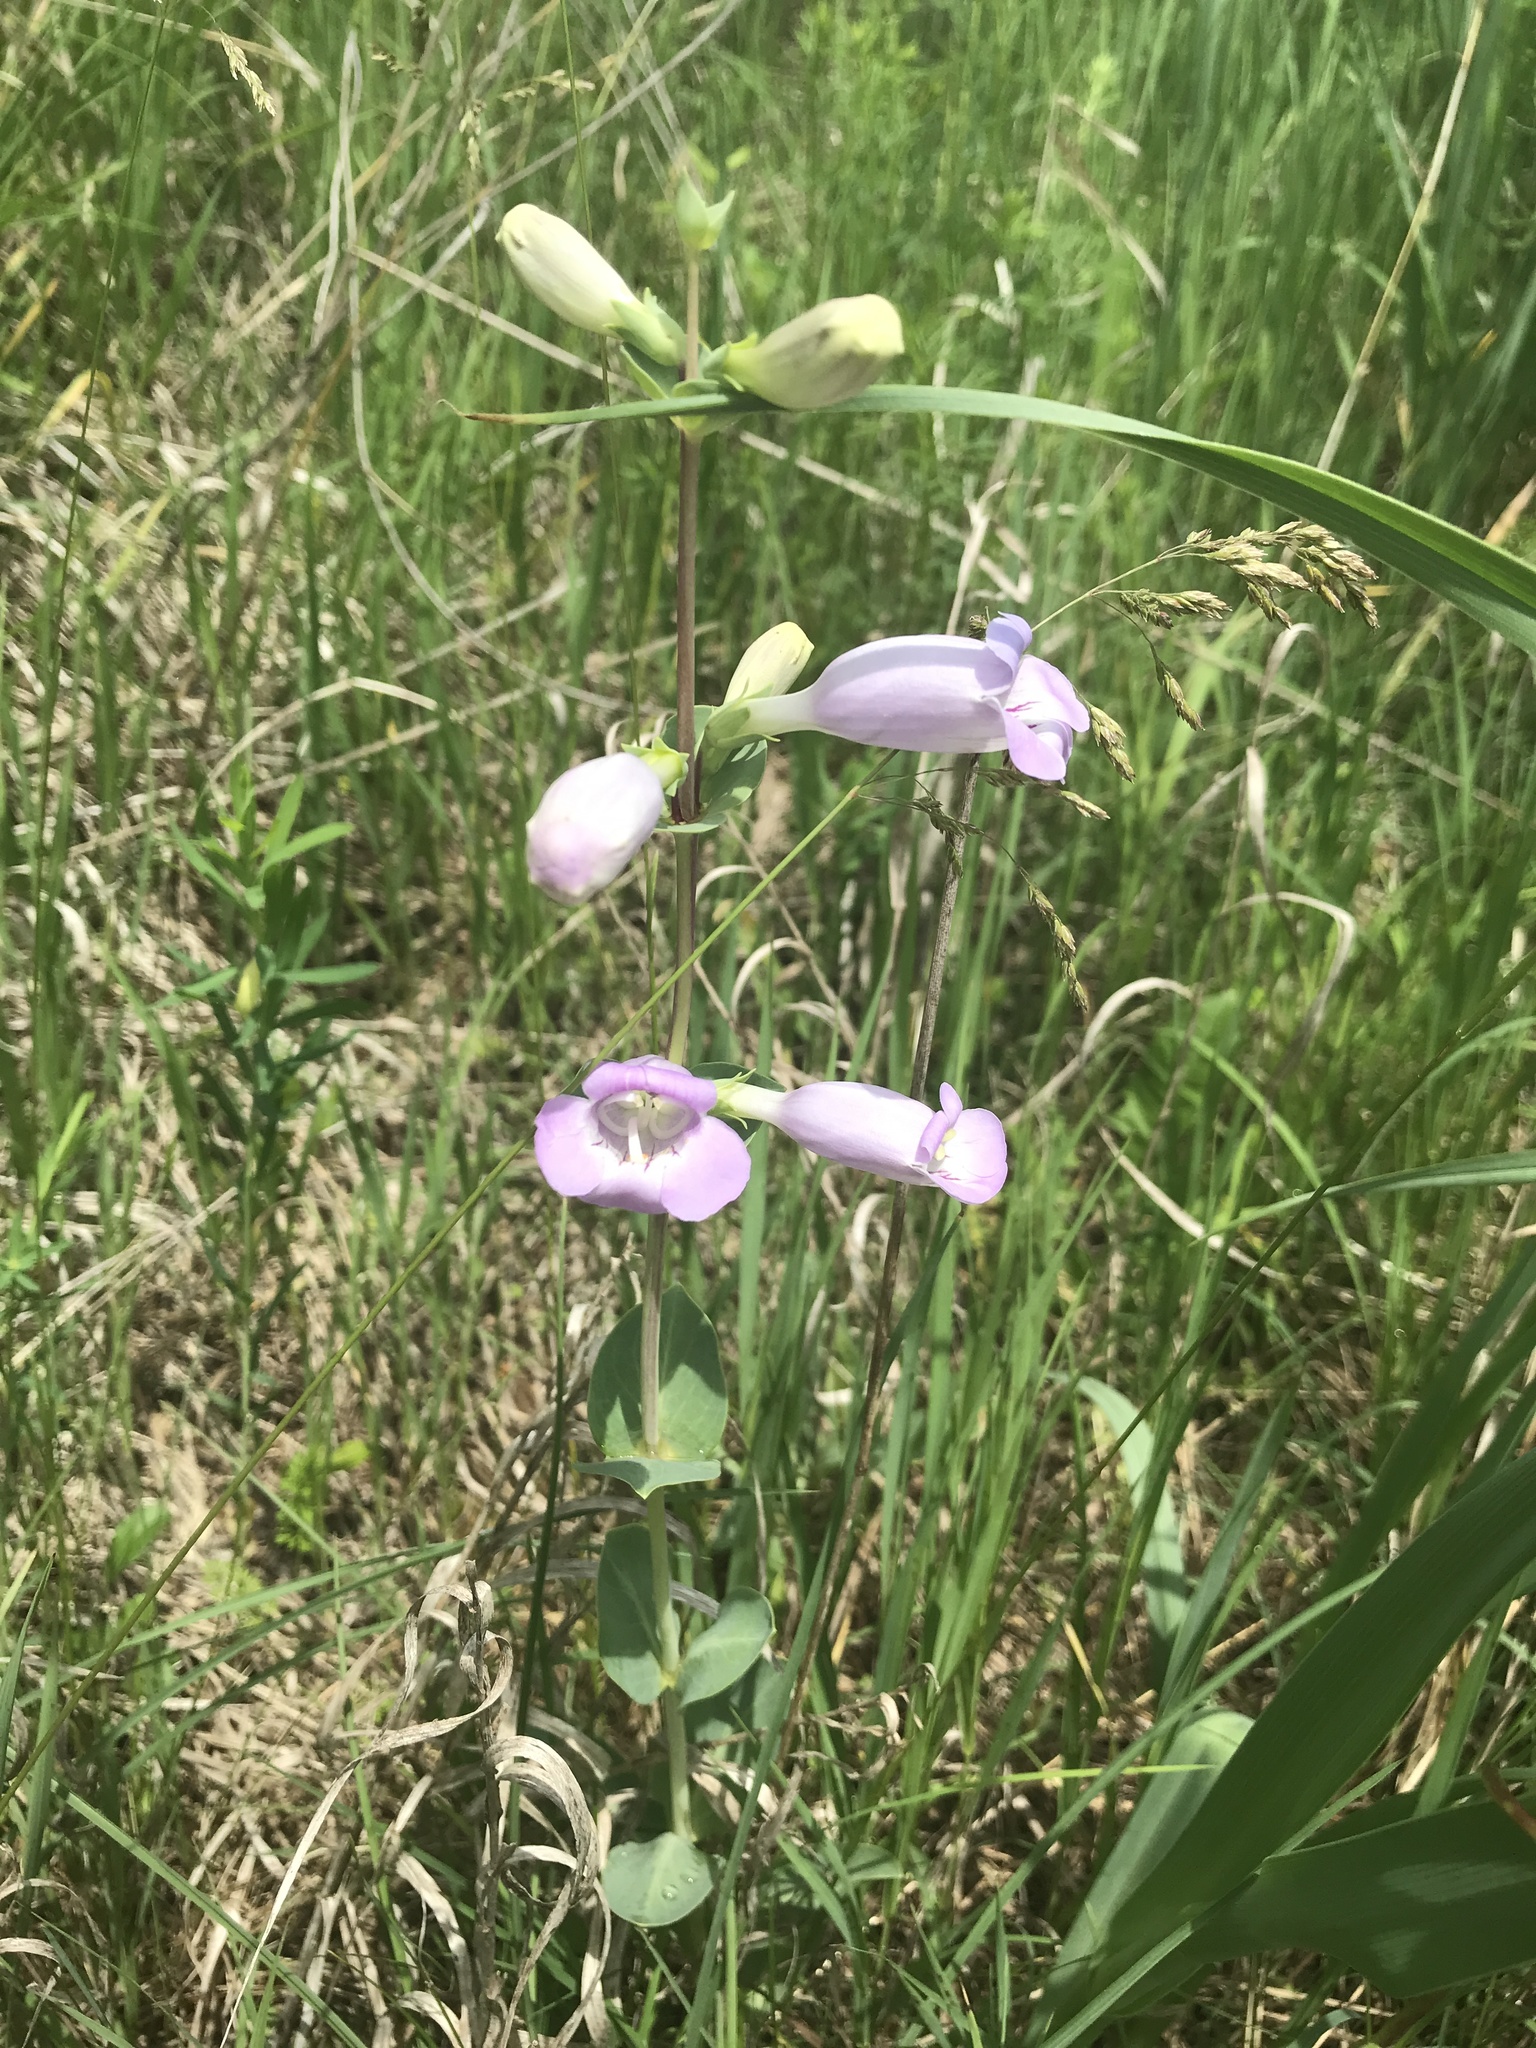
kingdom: Plantae
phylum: Tracheophyta
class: Magnoliopsida
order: Lamiales
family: Plantaginaceae
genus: Penstemon
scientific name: Penstemon
